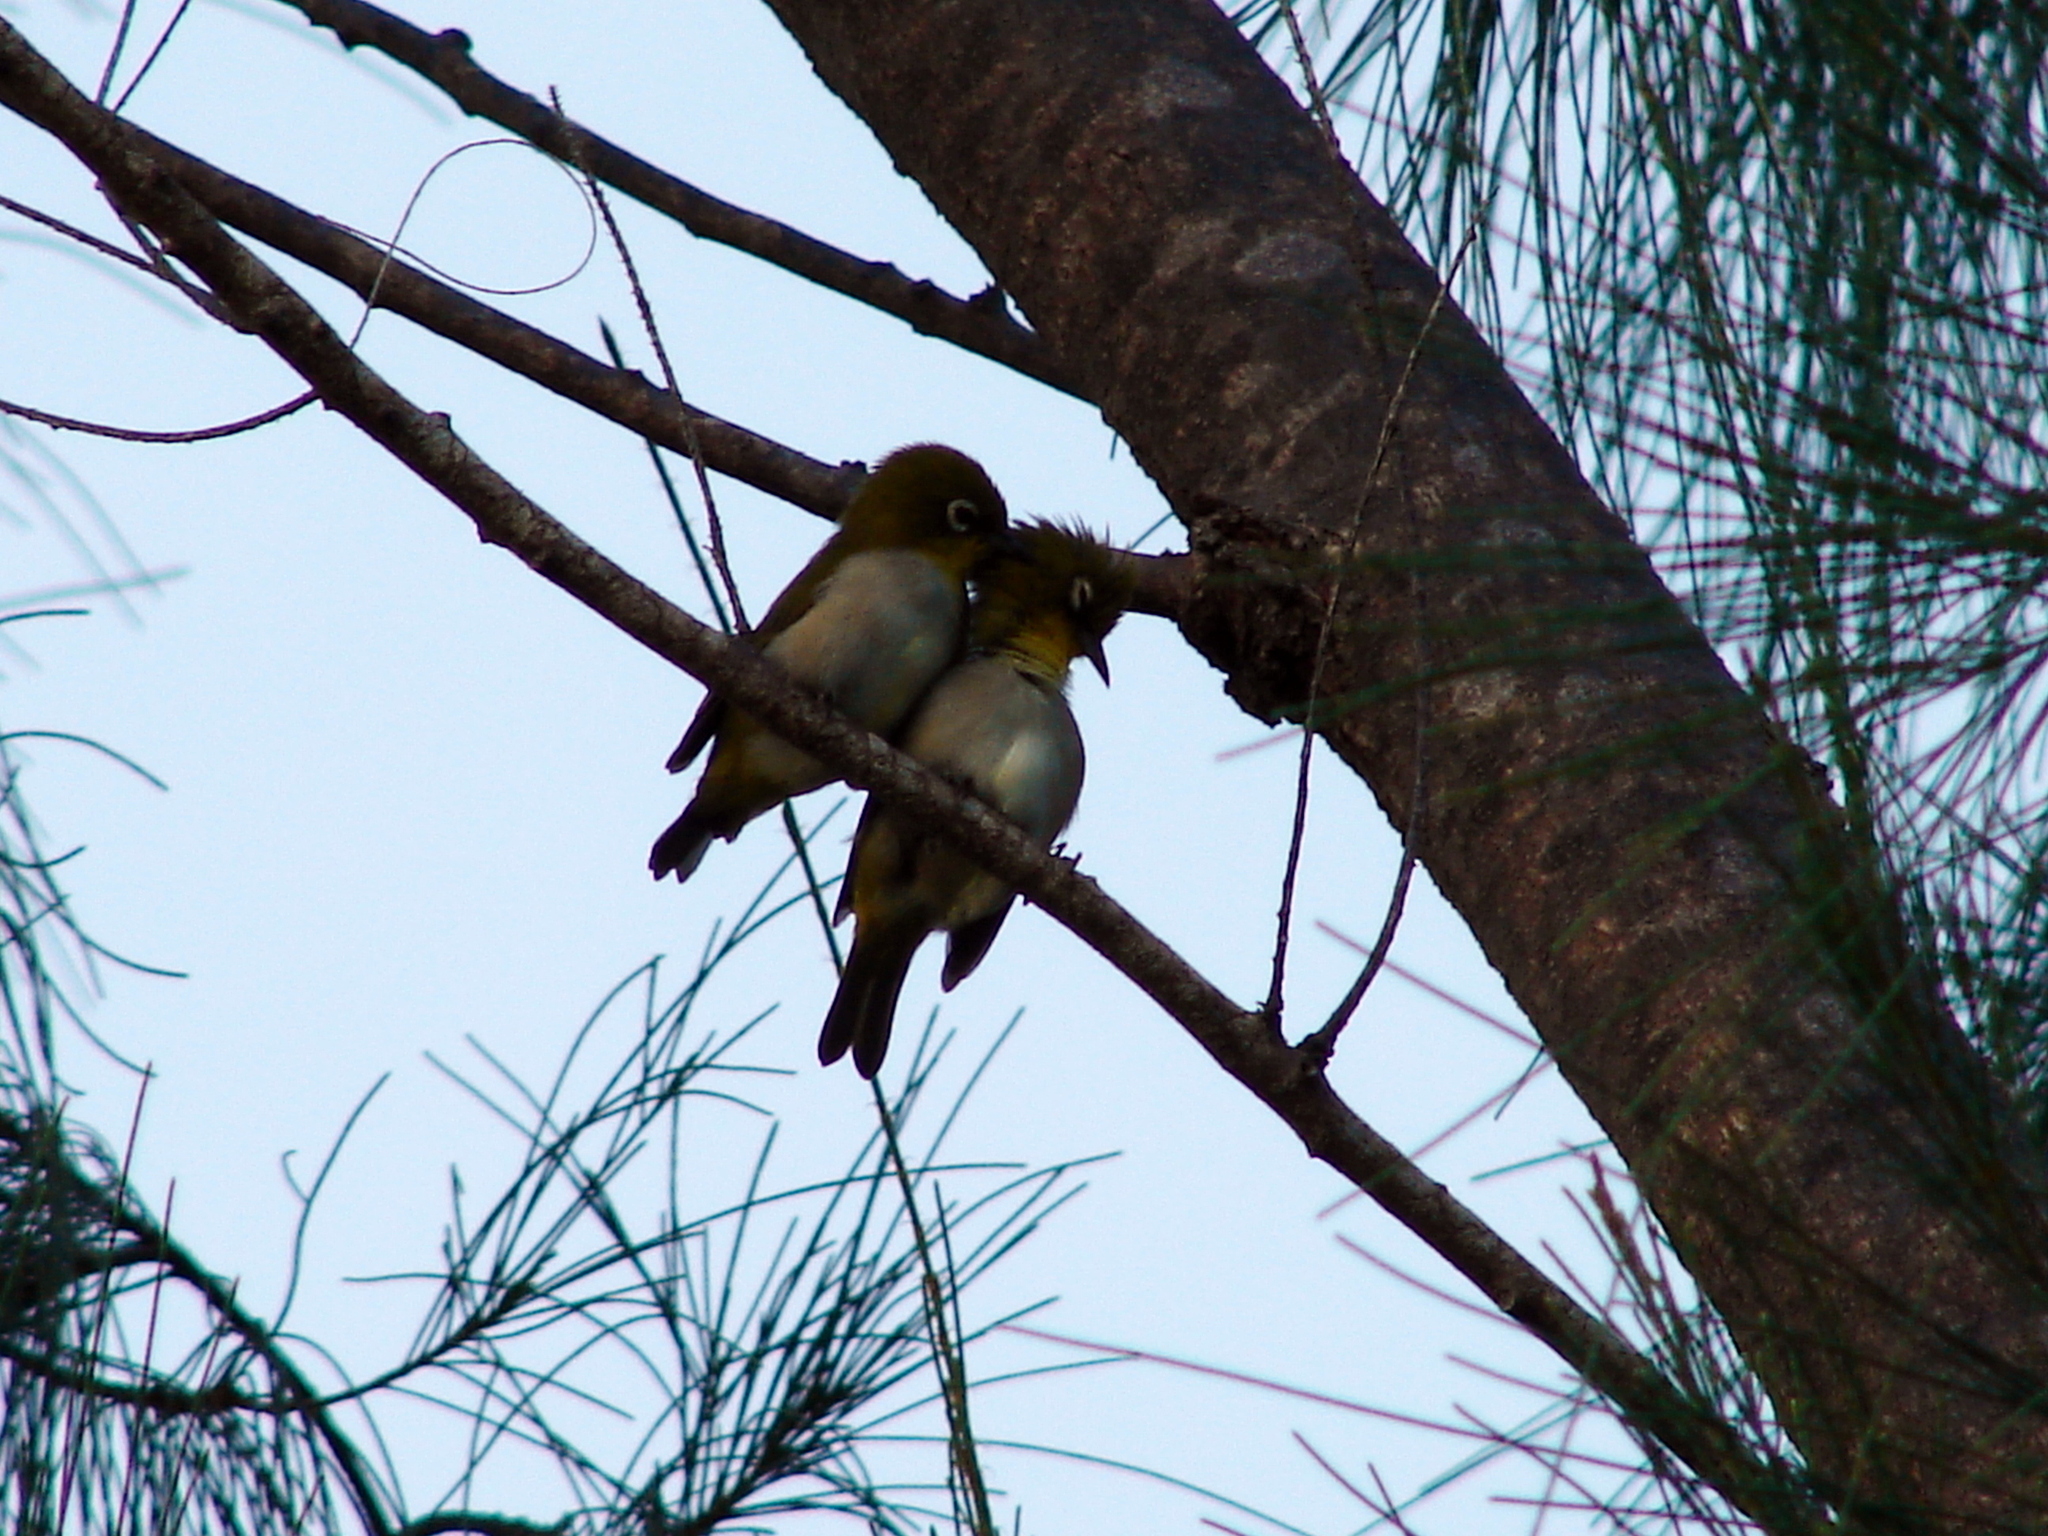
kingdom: Animalia
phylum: Chordata
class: Aves
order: Passeriformes
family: Zosteropidae
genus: Zosterops
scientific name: Zosterops maderaspatanus
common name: Madagascar white-eye
